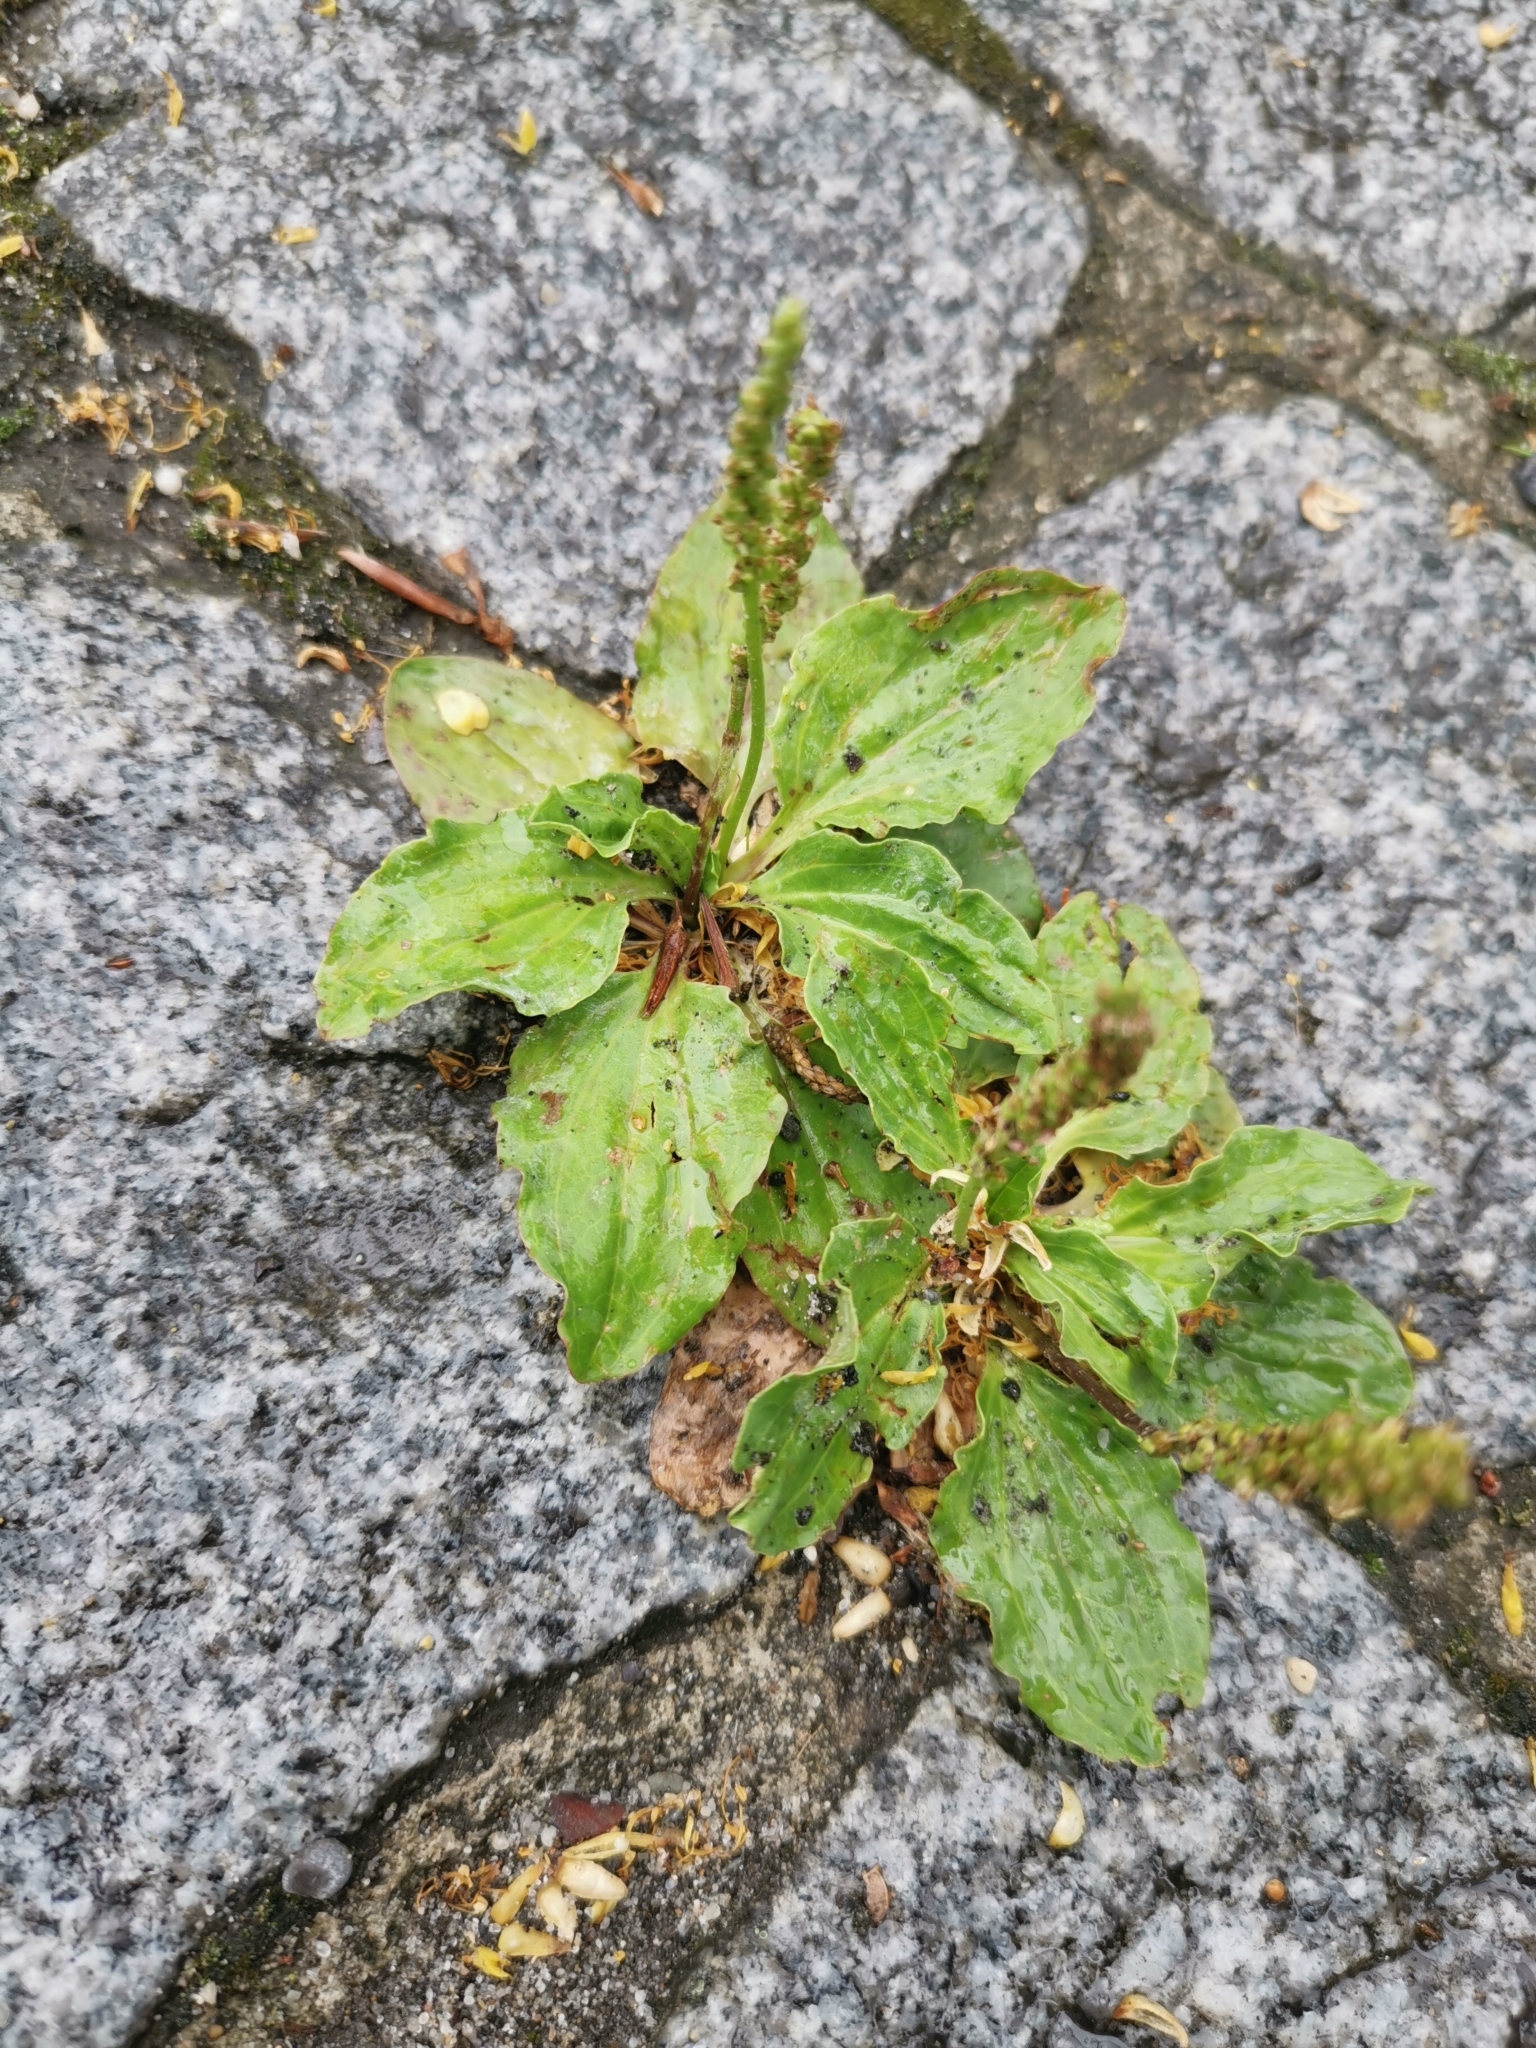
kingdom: Plantae
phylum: Tracheophyta
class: Magnoliopsida
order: Lamiales
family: Plantaginaceae
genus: Plantago
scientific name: Plantago major
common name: Common plantain
